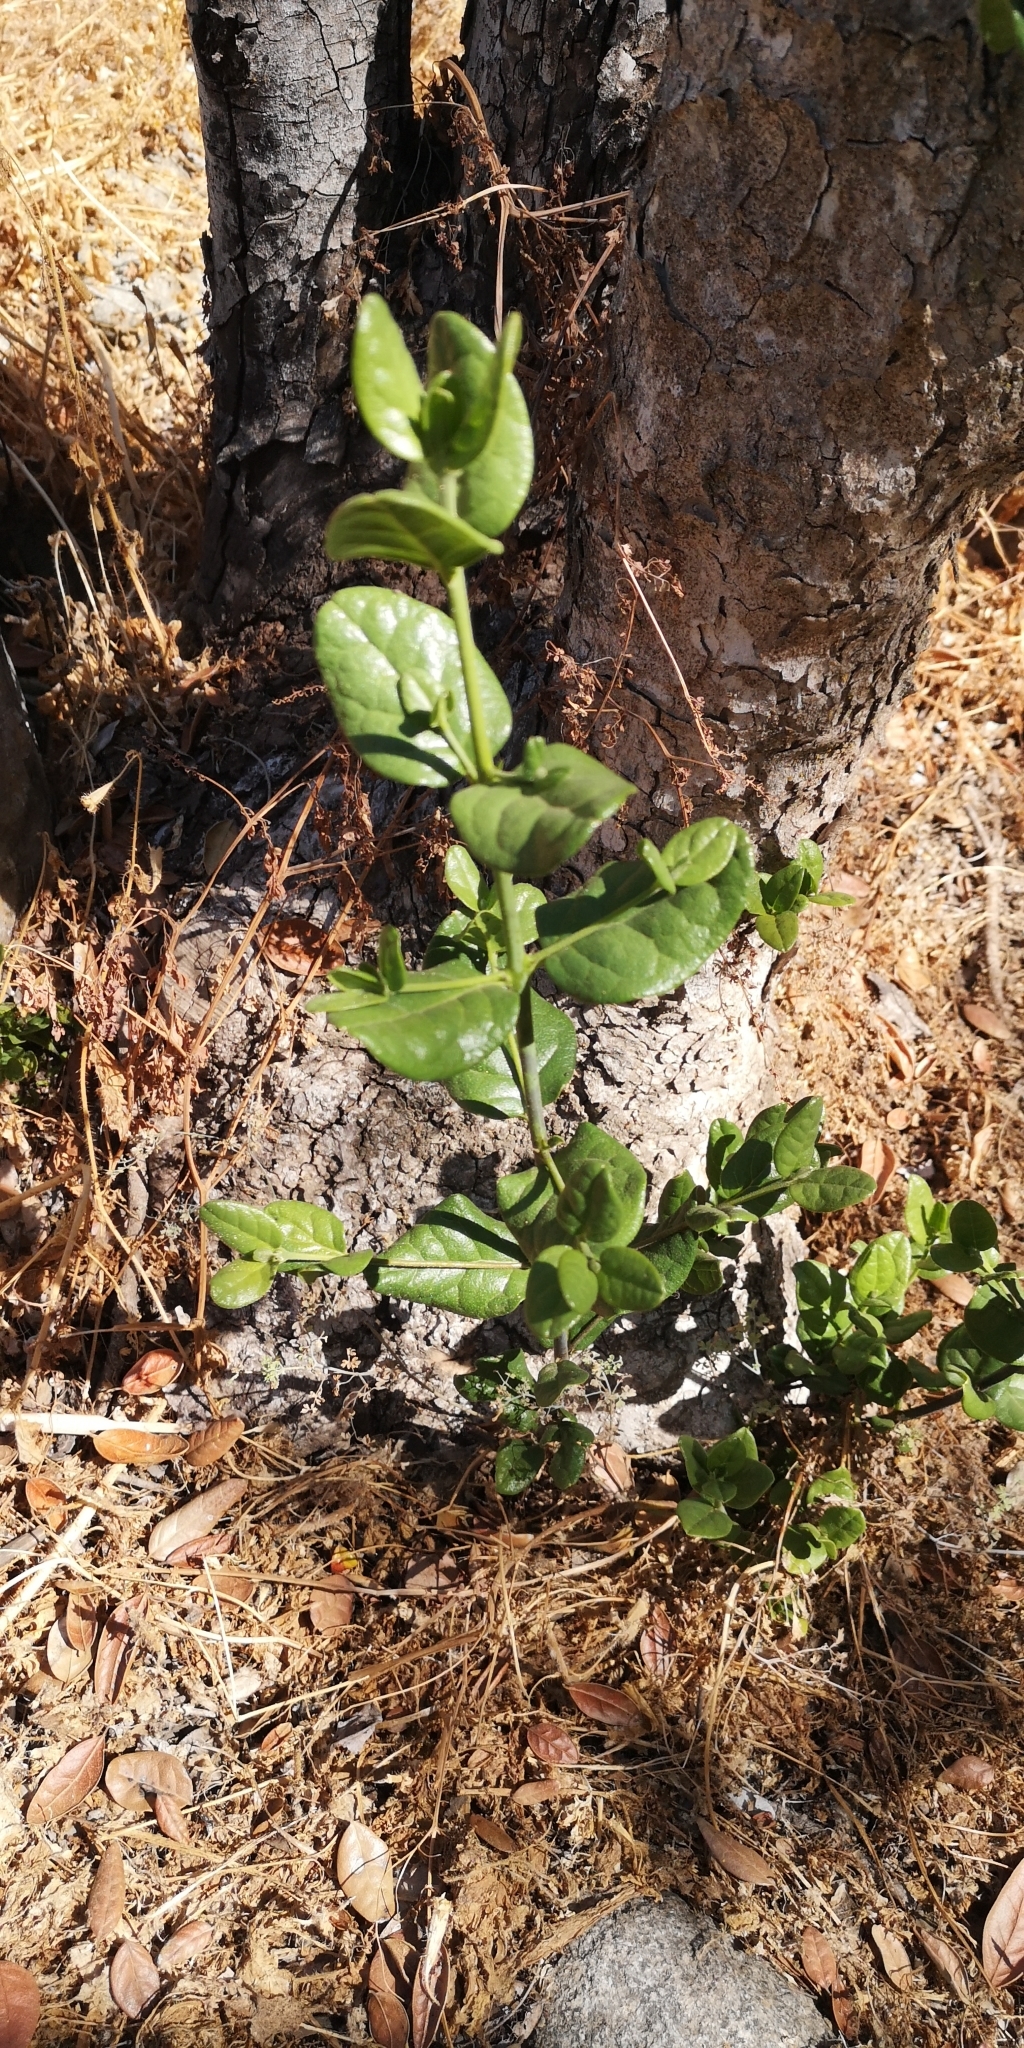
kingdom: Plantae
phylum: Tracheophyta
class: Magnoliopsida
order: Laurales
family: Monimiaceae
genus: Peumus
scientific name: Peumus boldus
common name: Boldo
